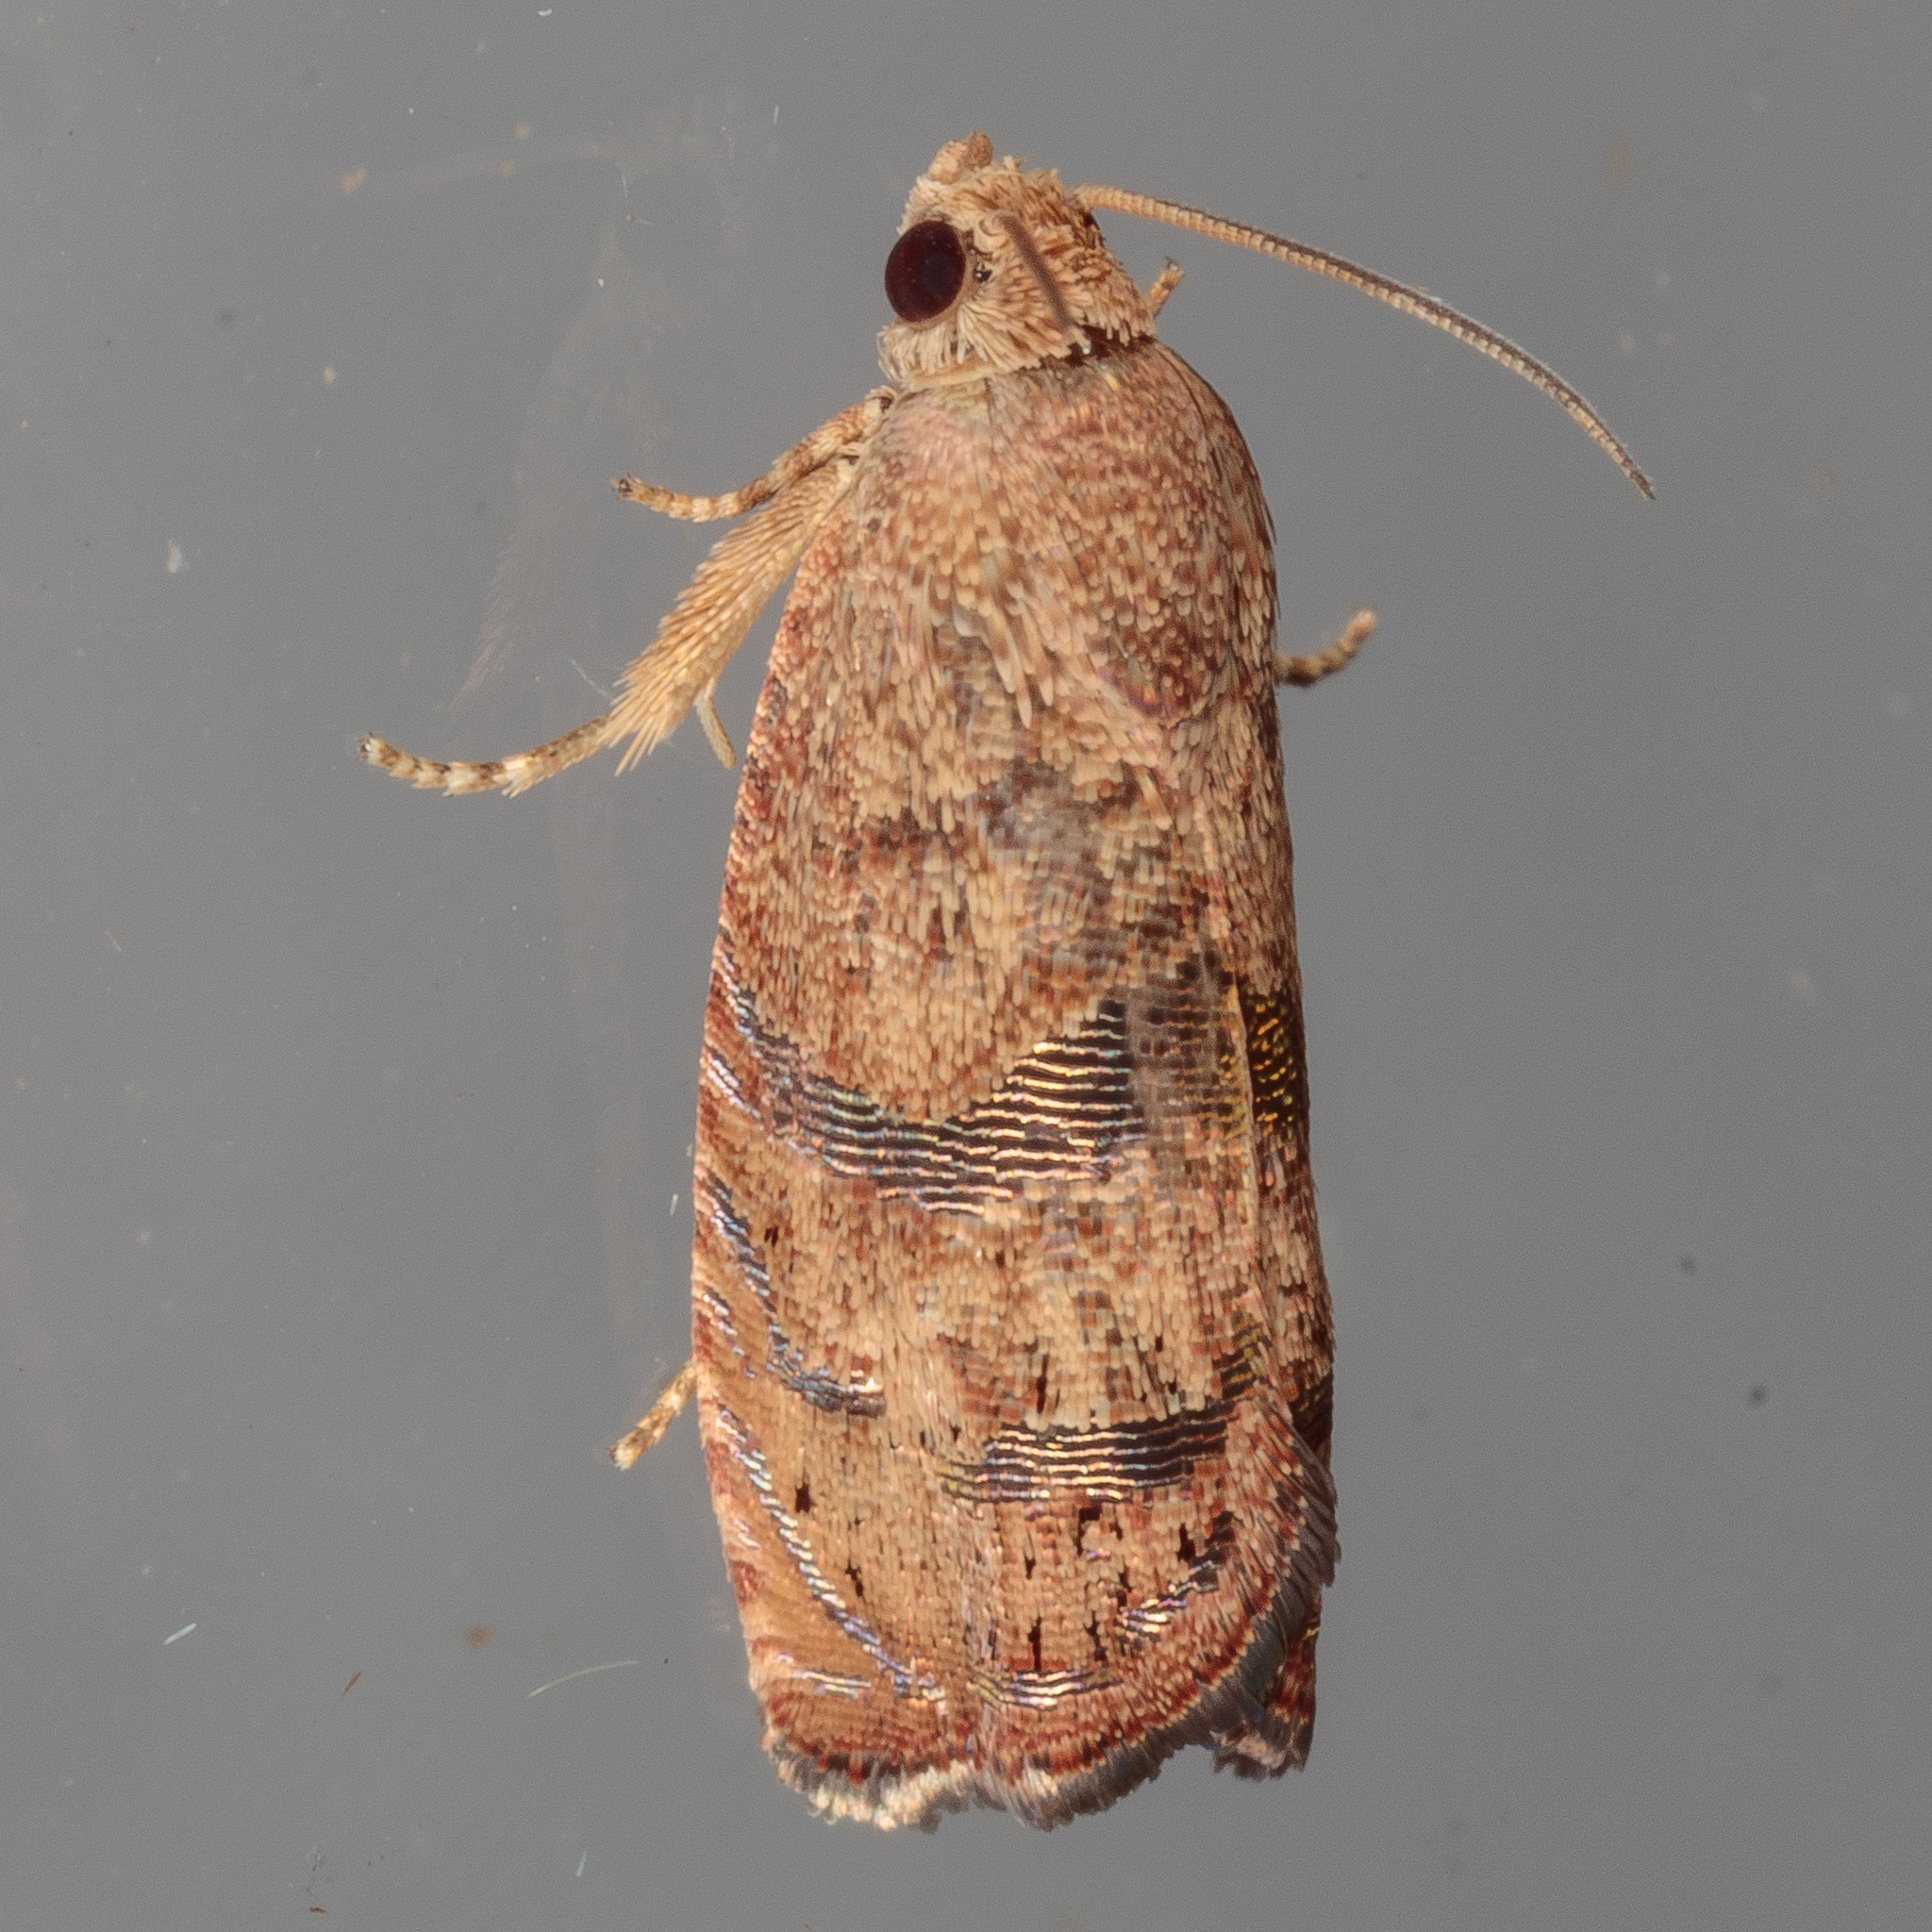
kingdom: Animalia
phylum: Arthropoda
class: Insecta
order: Lepidoptera
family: Tortricidae
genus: Cydia
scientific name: Cydia latiferreana
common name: Filbertworm moth
